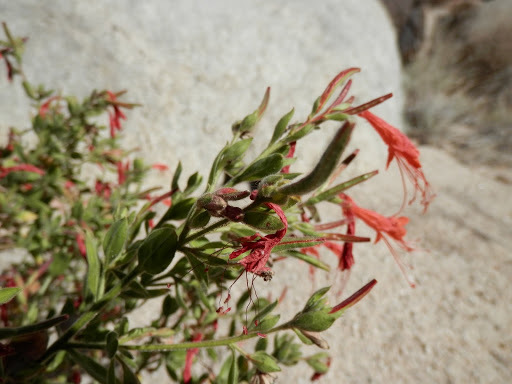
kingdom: Plantae
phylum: Tracheophyta
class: Magnoliopsida
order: Myrtales
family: Onagraceae
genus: Epilobium
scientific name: Epilobium canum
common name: California-fuchsia
